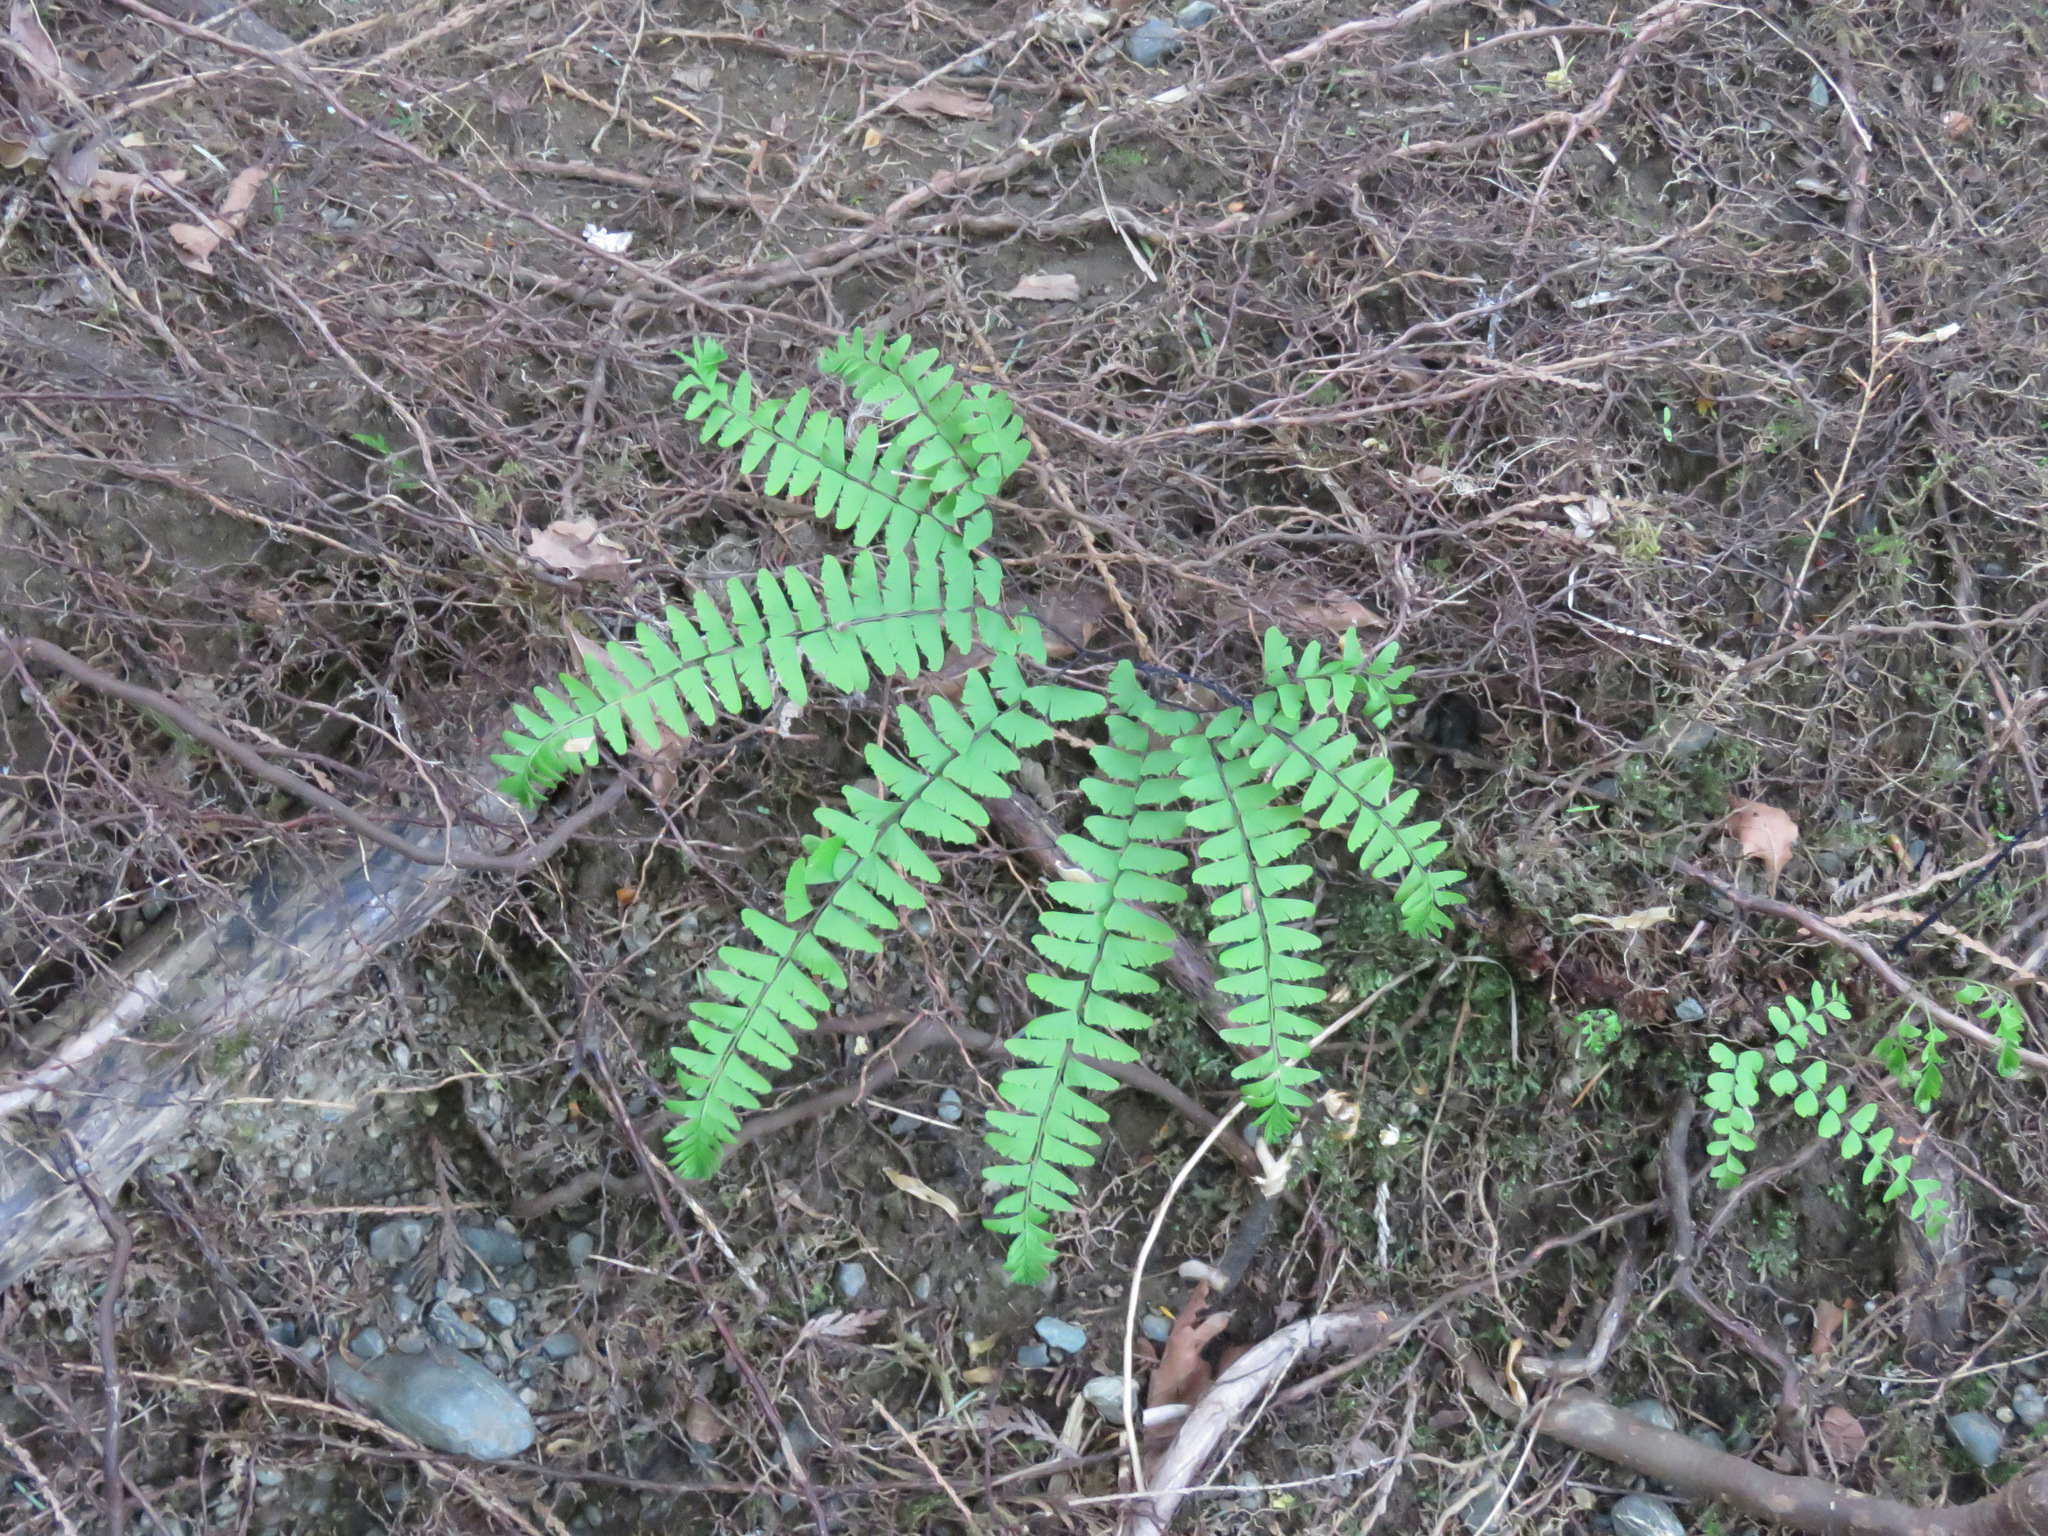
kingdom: Plantae
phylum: Tracheophyta
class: Polypodiopsida
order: Polypodiales
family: Pteridaceae
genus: Adiantum
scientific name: Adiantum aleuticum
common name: Aleutian maidenhair fern
